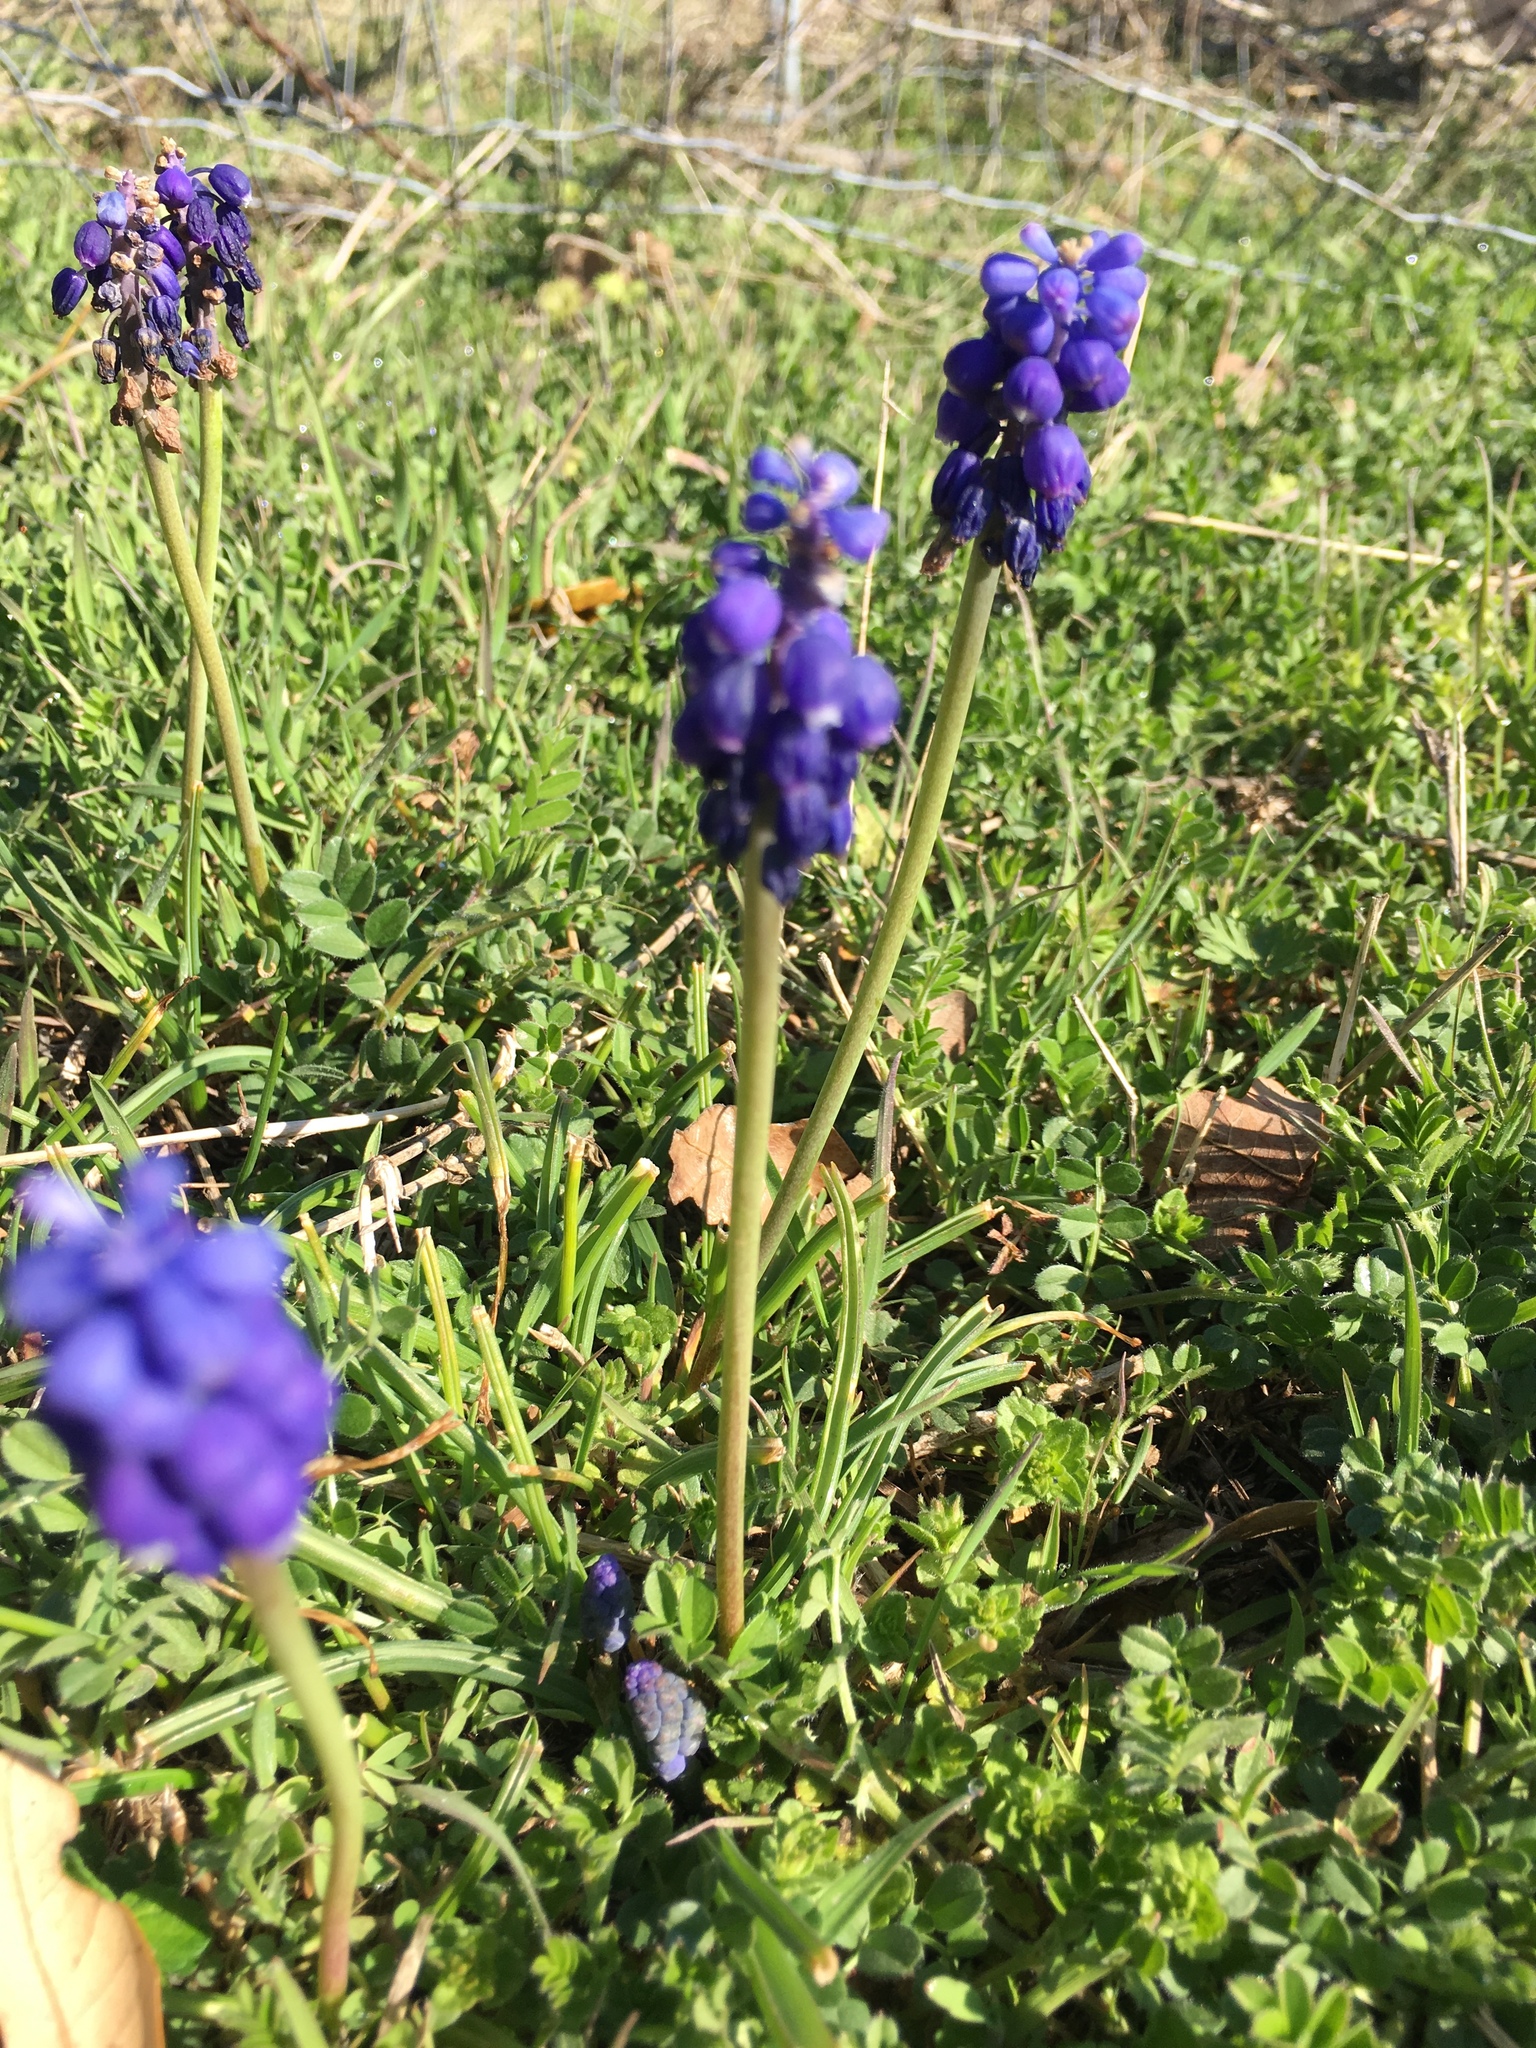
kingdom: Plantae
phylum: Tracheophyta
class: Liliopsida
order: Asparagales
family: Asparagaceae
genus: Muscari
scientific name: Muscari neglectum
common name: Grape-hyacinth
